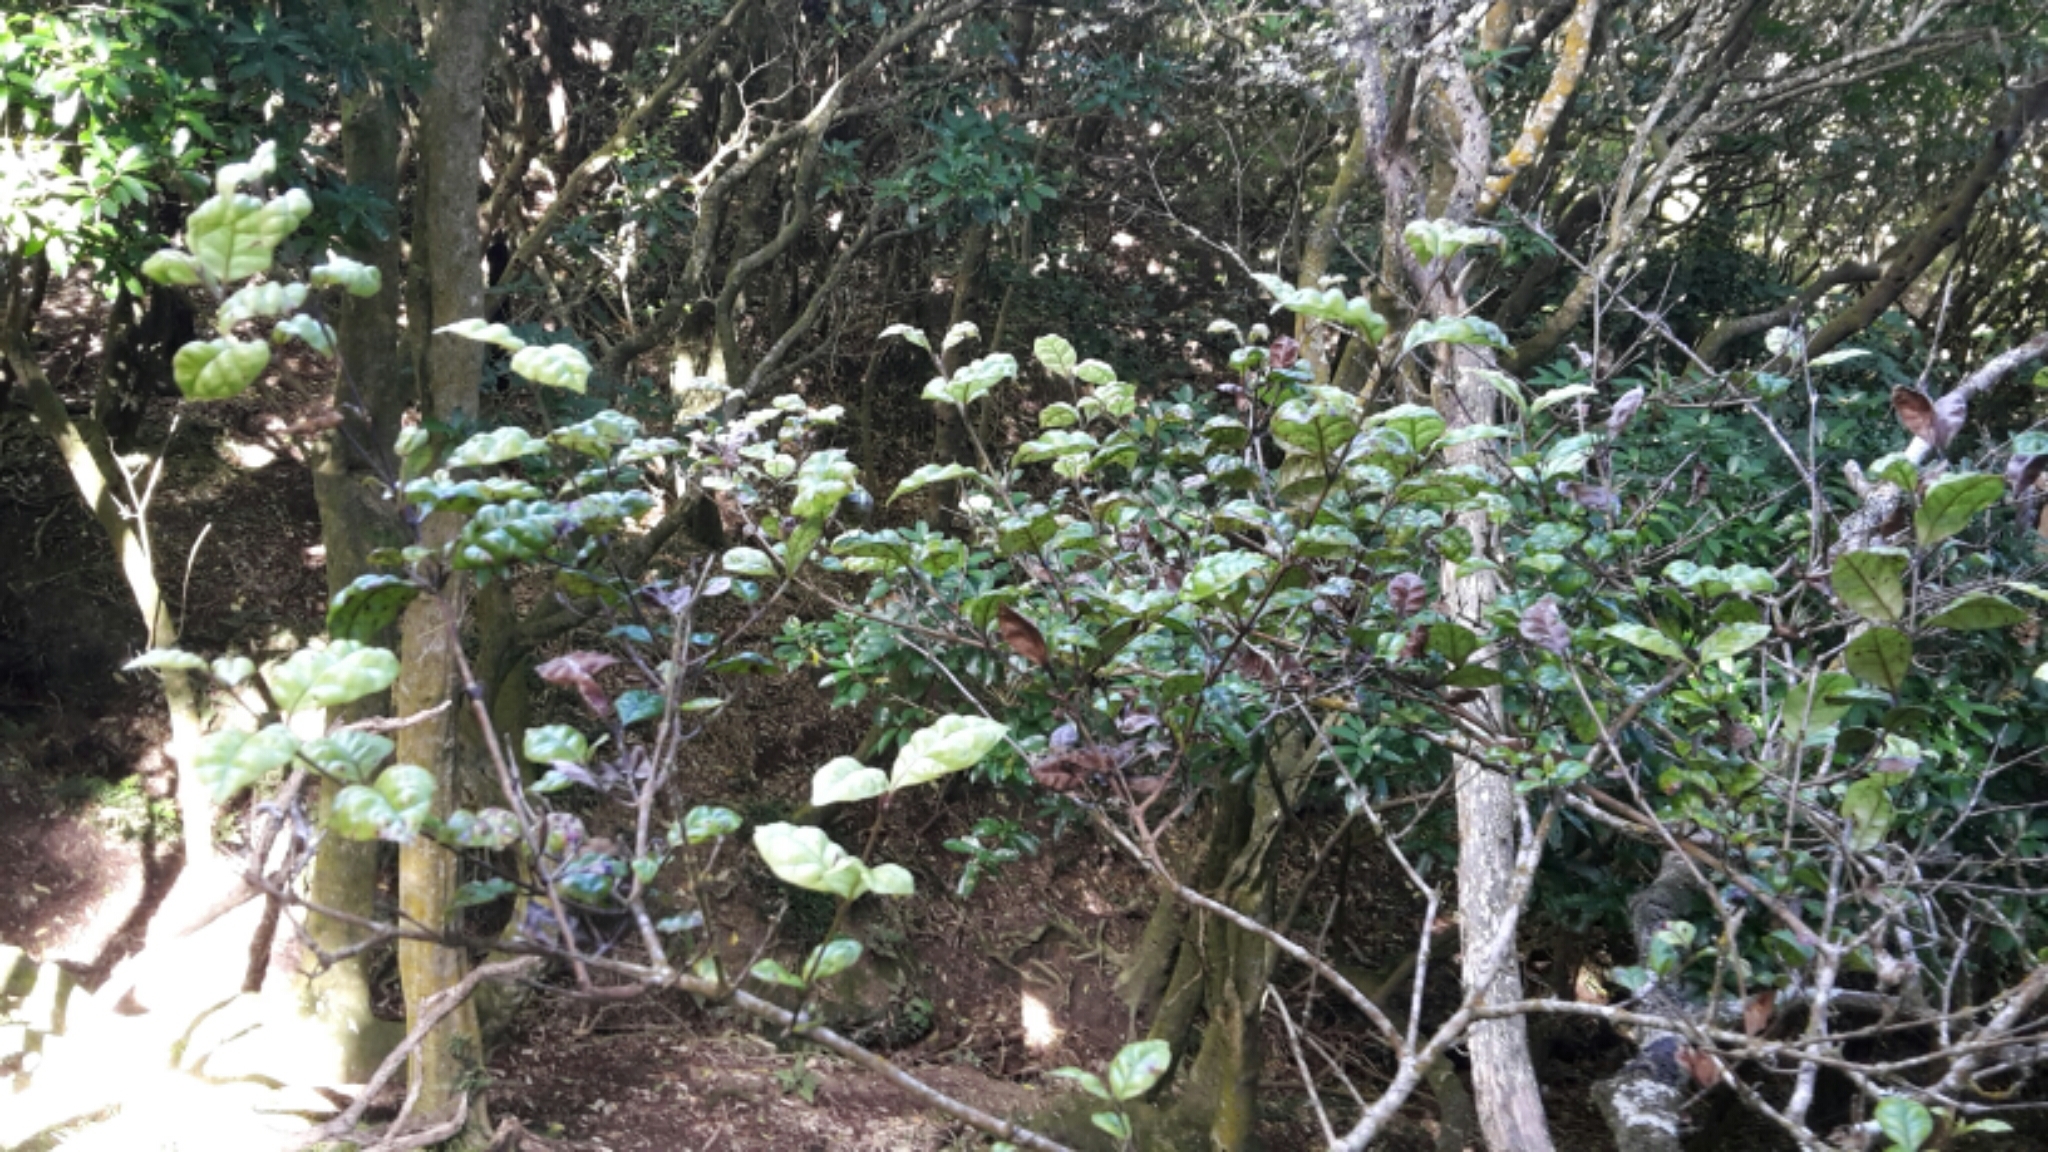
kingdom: Plantae
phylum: Tracheophyta
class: Magnoliopsida
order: Myrtales
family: Myrtaceae
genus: Lophomyrtus
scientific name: Lophomyrtus bullata
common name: Rama rama
